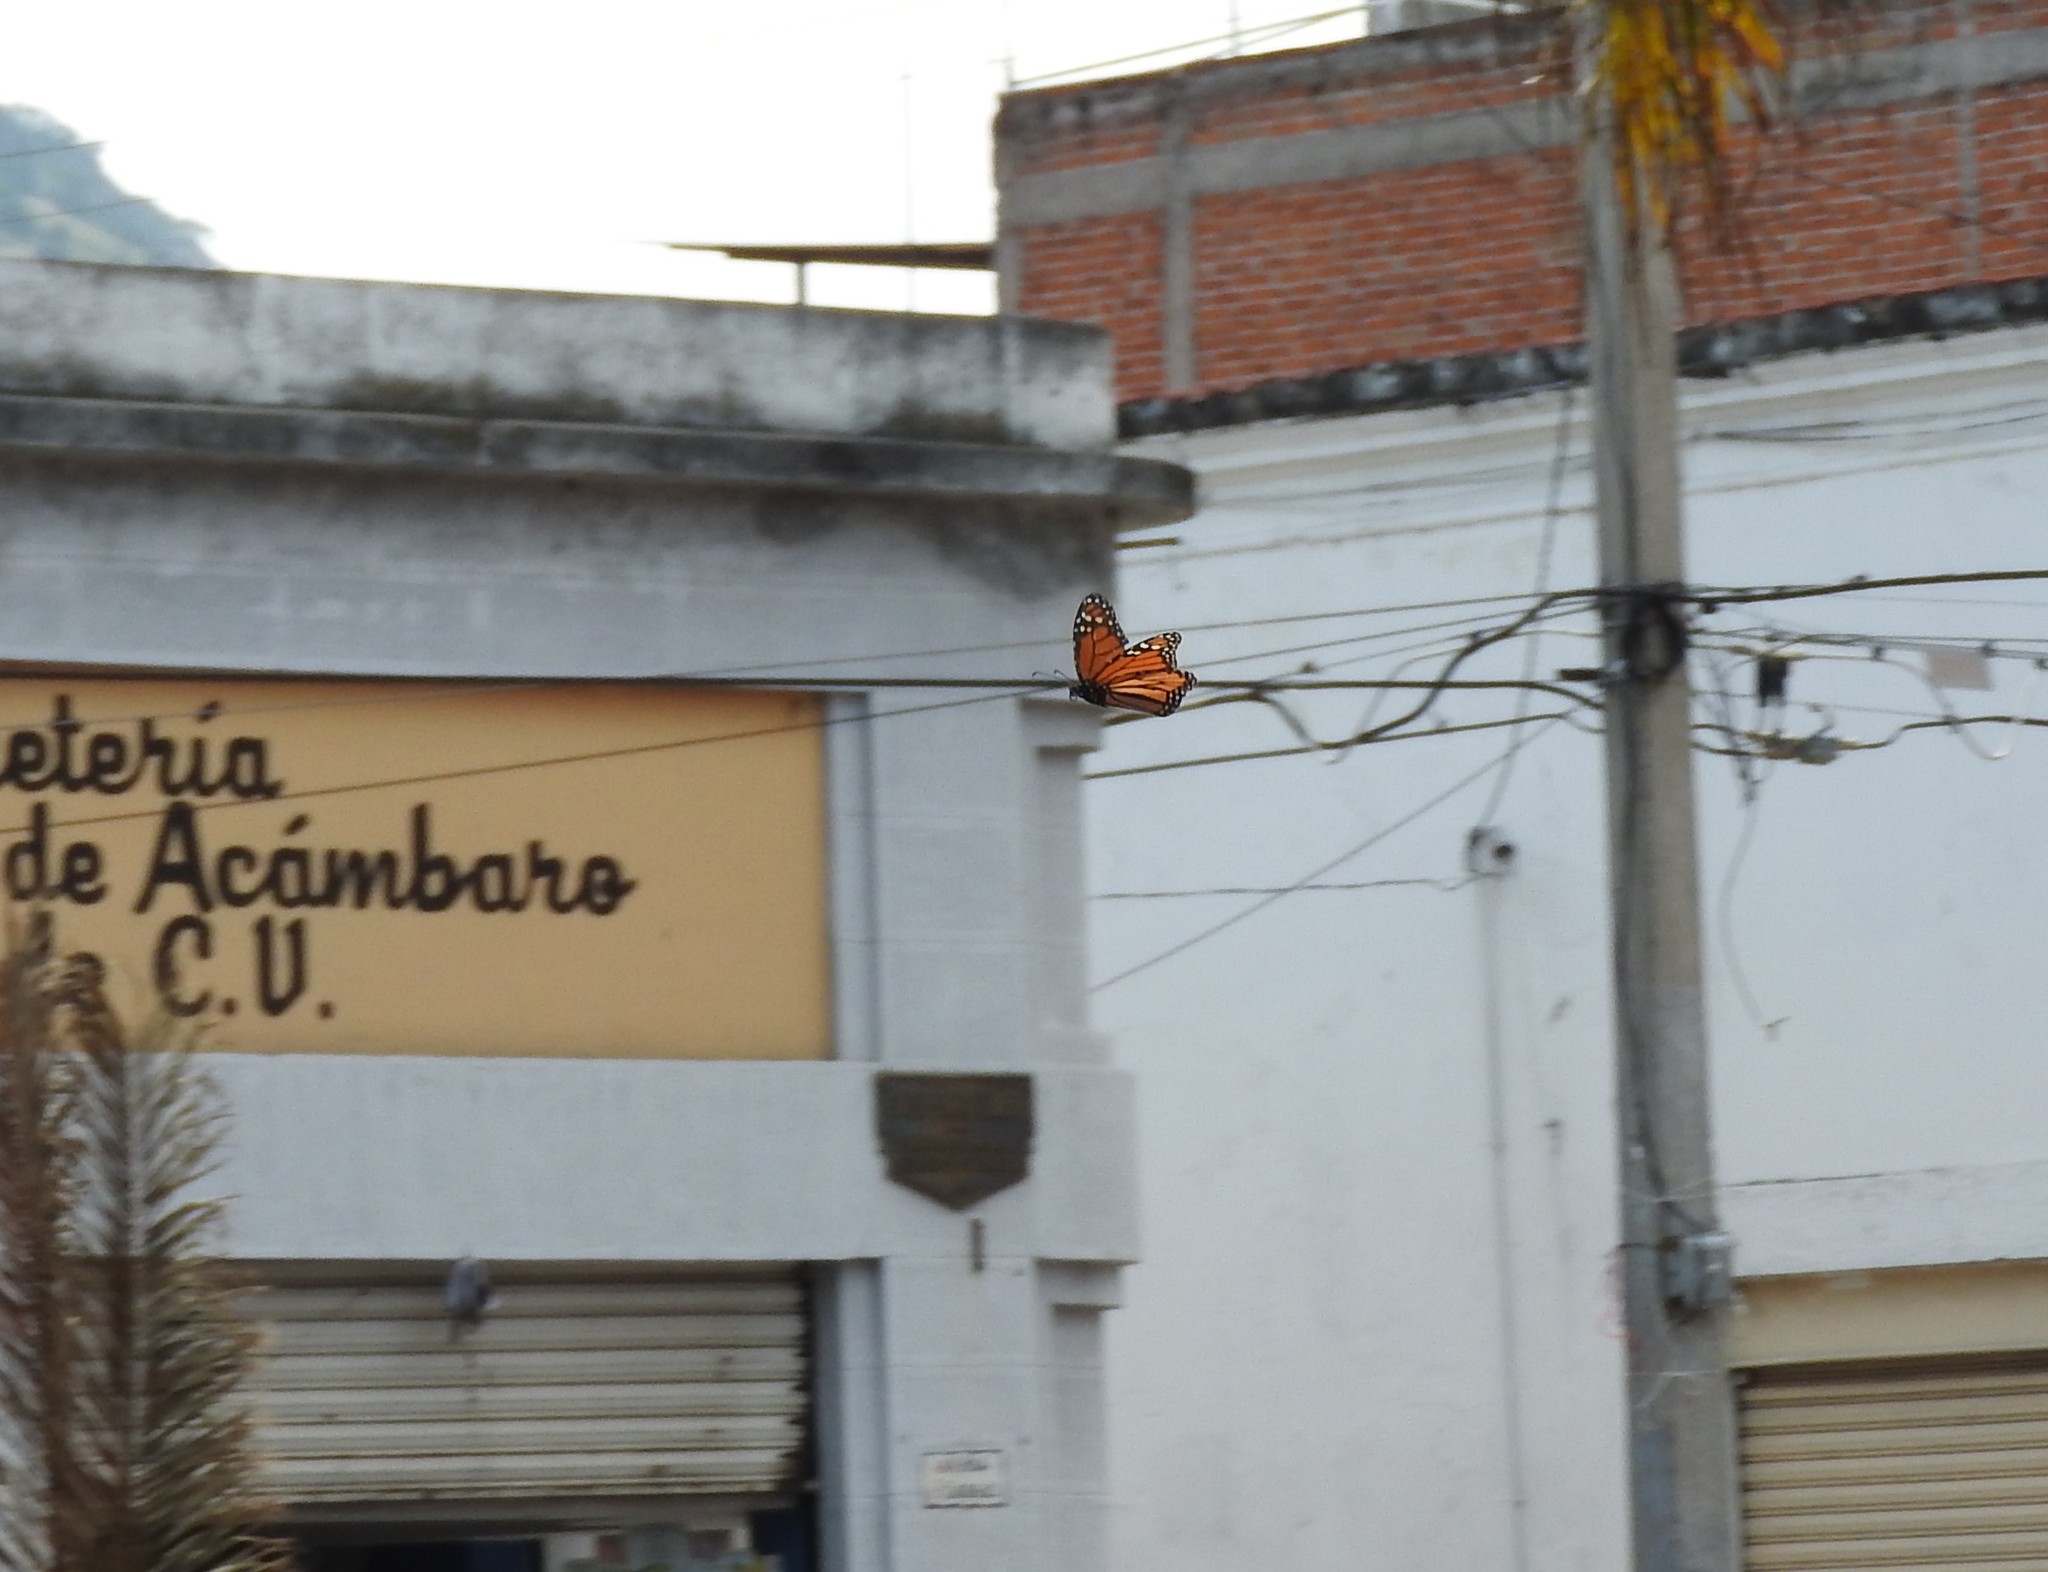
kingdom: Animalia
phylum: Arthropoda
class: Insecta
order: Lepidoptera
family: Nymphalidae
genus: Danaus
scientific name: Danaus plexippus
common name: Monarch
